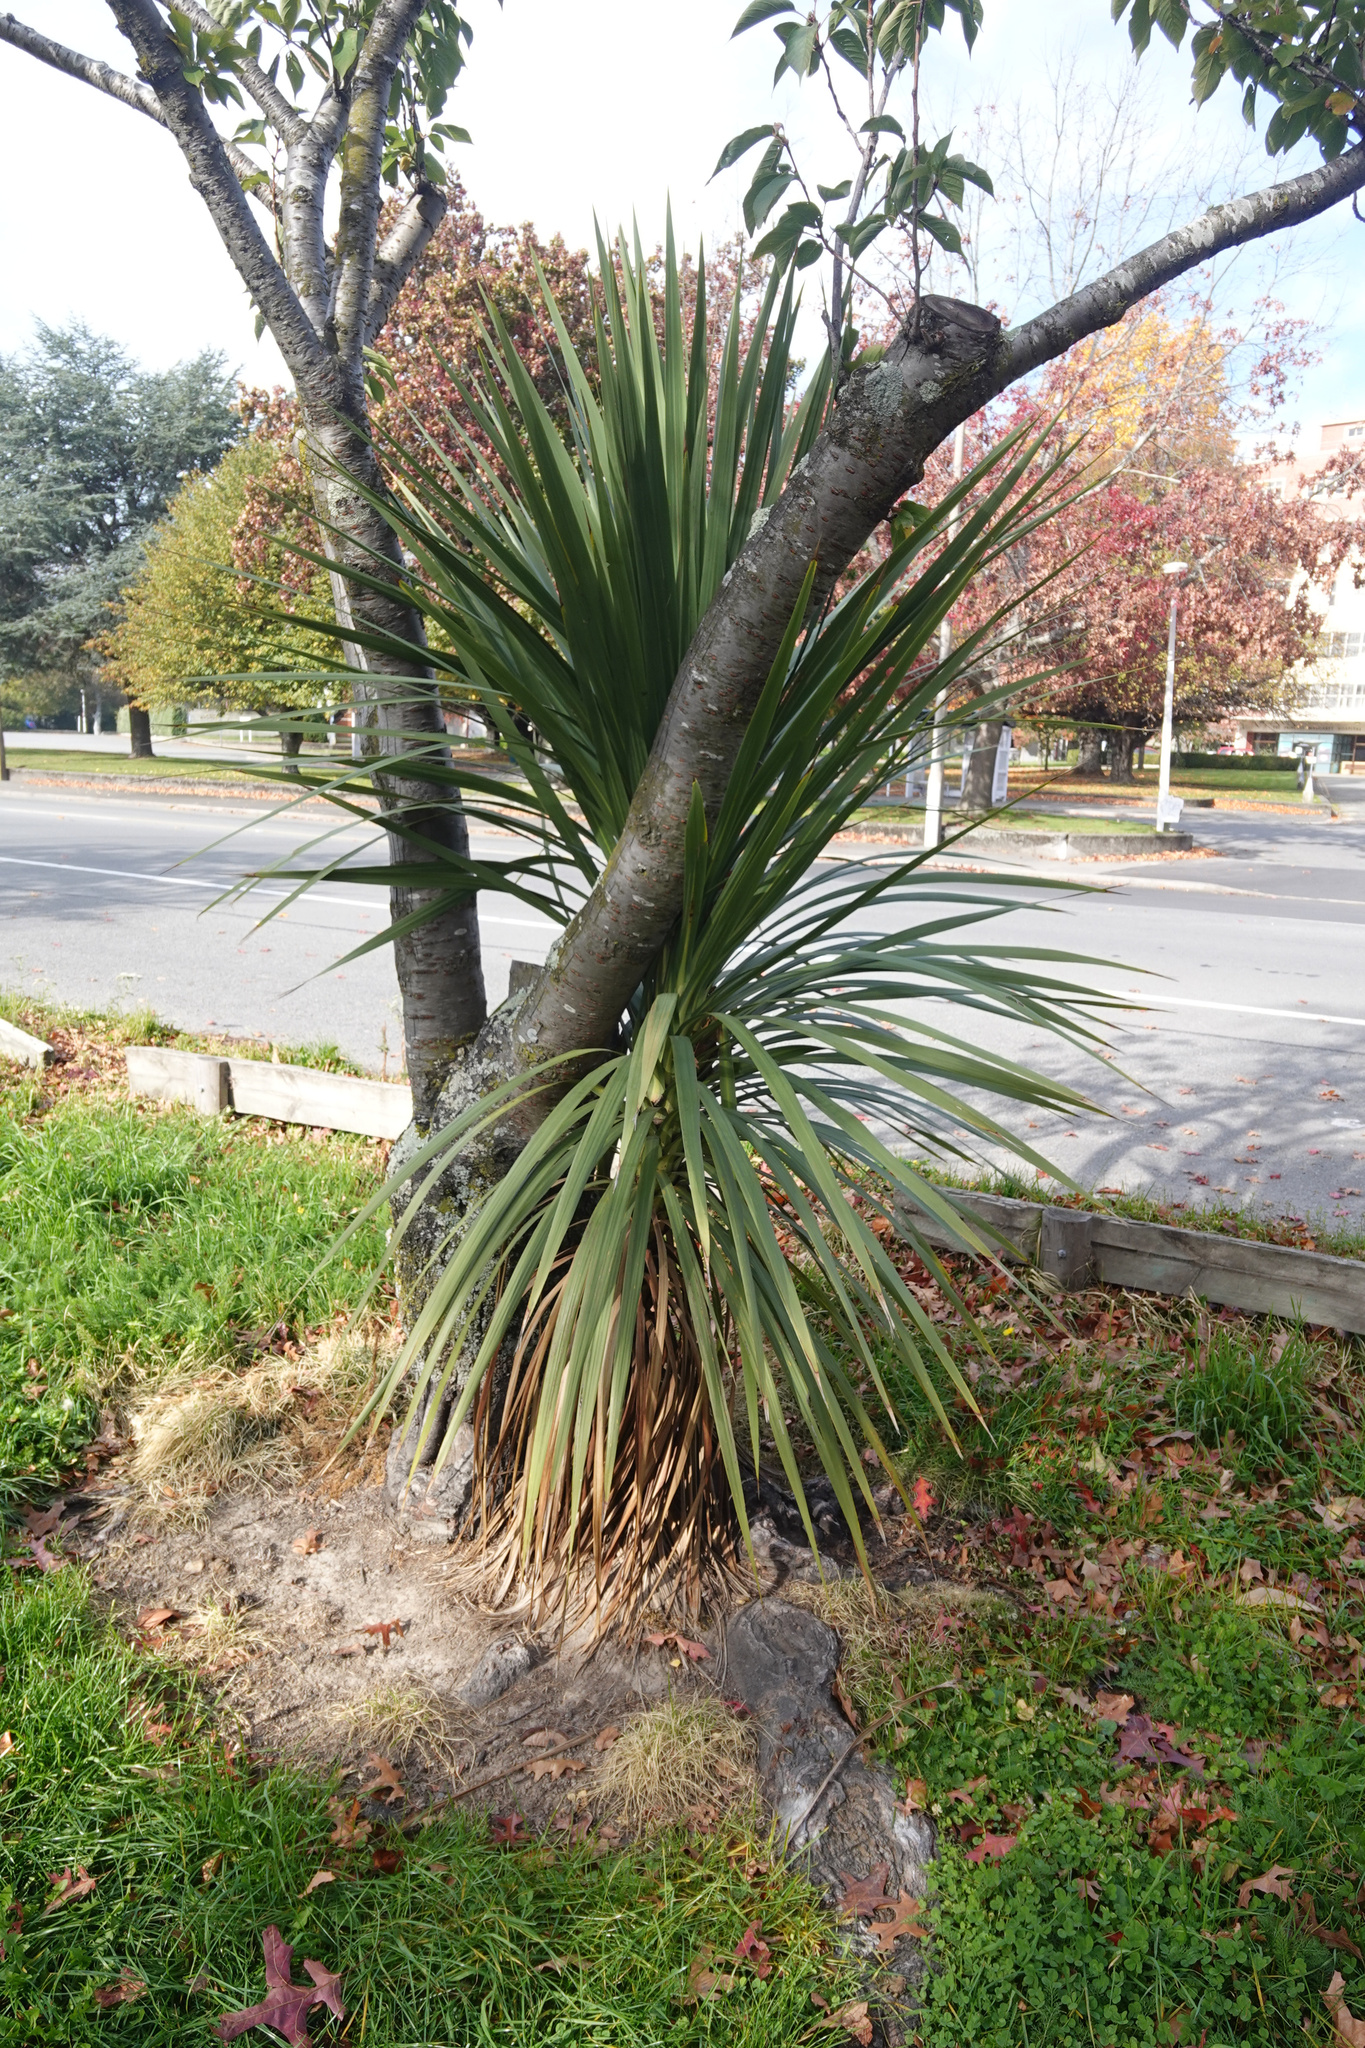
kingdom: Plantae
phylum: Tracheophyta
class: Liliopsida
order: Asparagales
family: Asparagaceae
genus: Cordyline
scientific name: Cordyline australis
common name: Cabbage-palm
